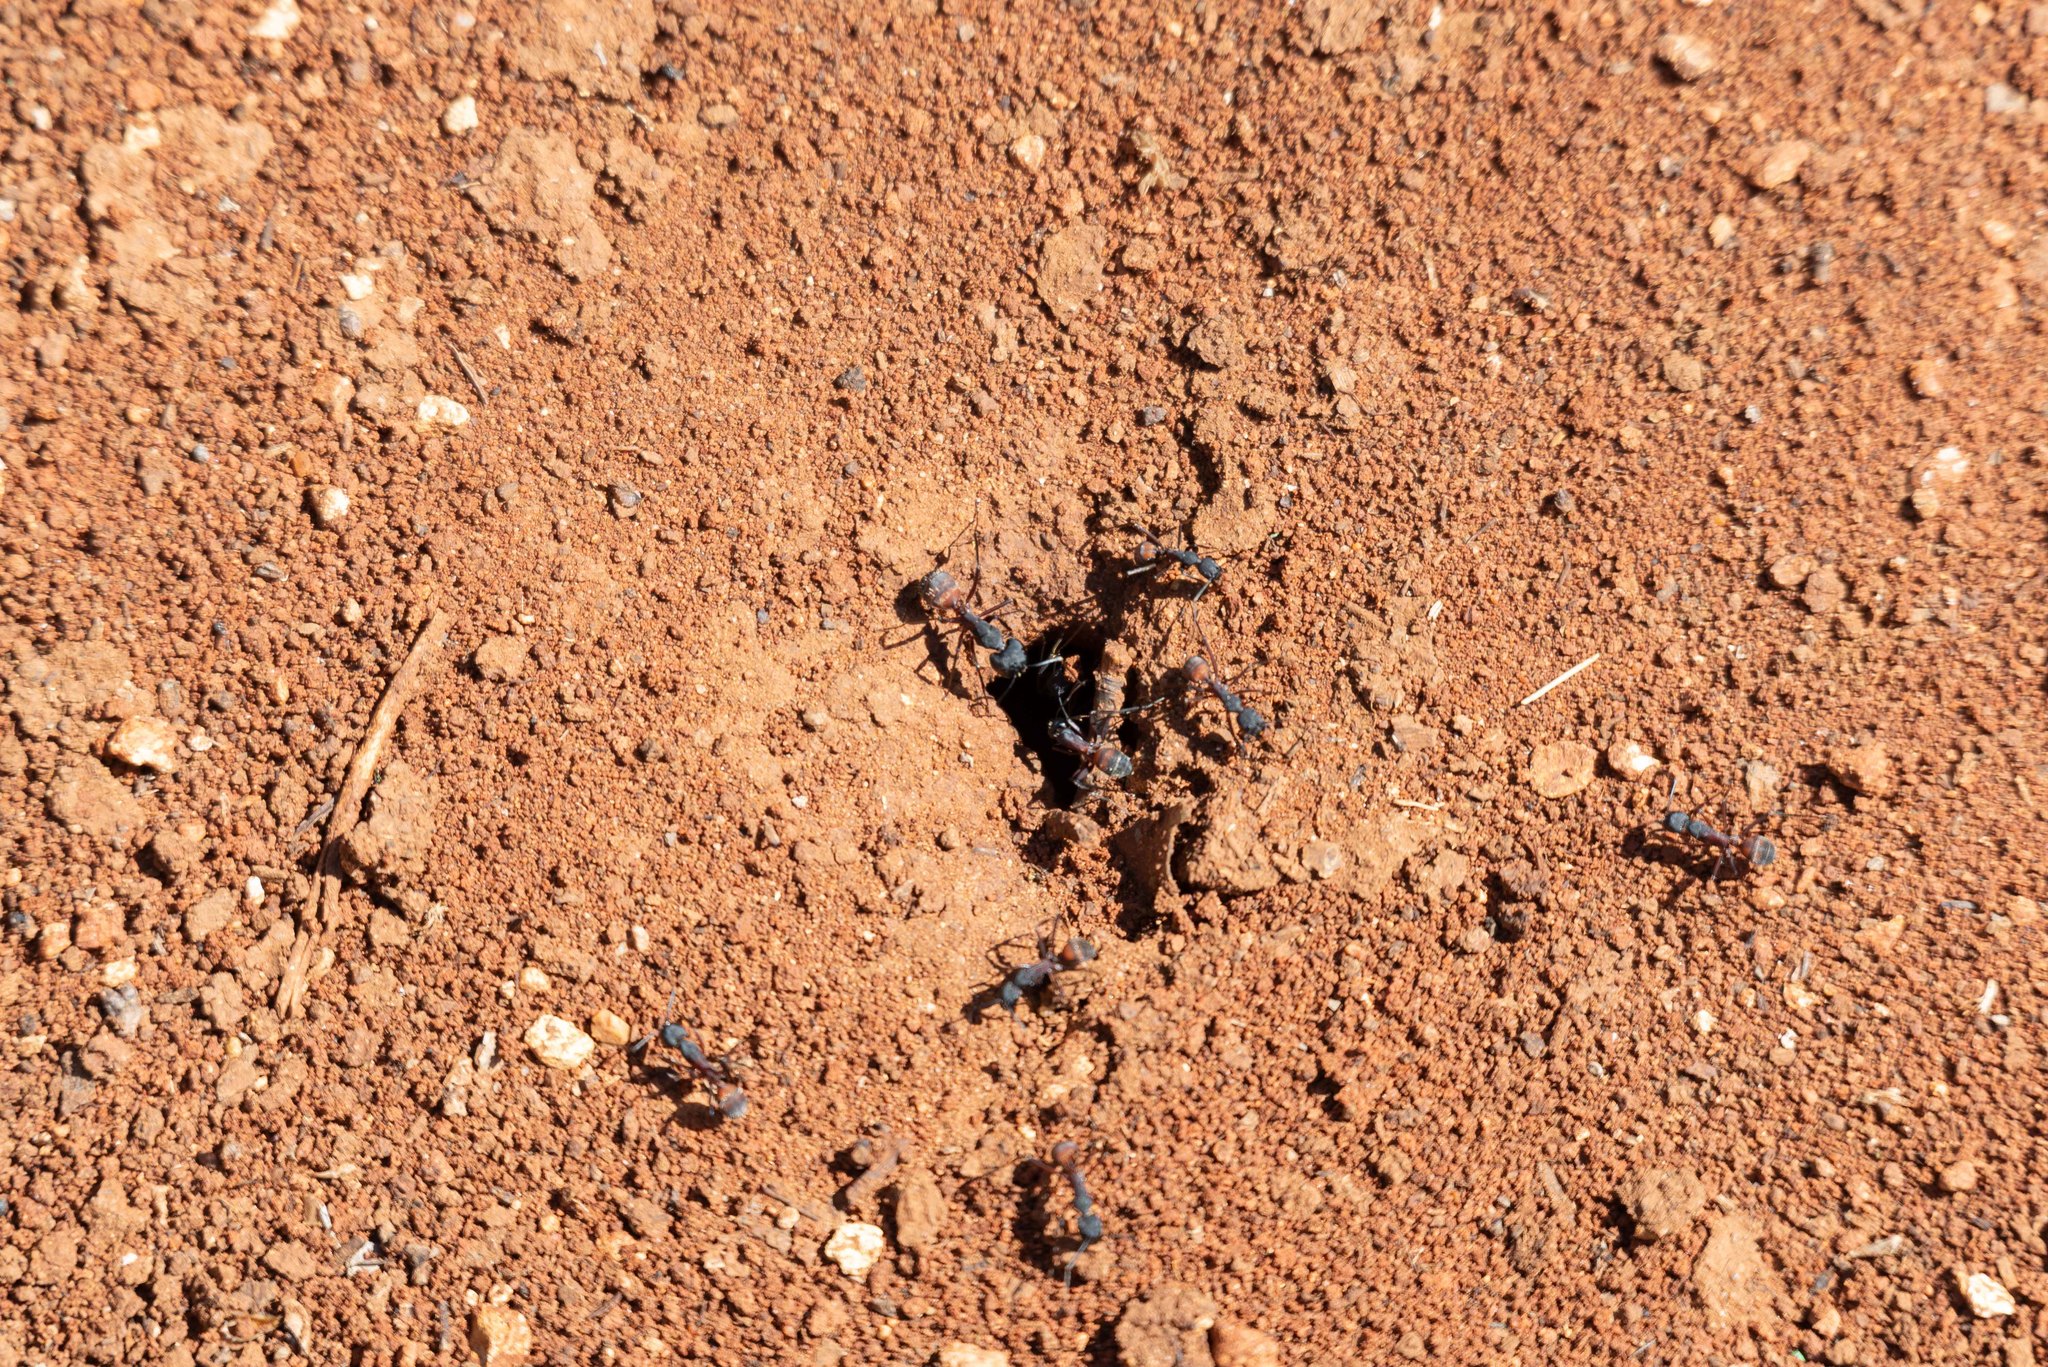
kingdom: Animalia
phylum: Arthropoda
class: Insecta
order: Hymenoptera
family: Formicidae
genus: Camponotus
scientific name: Camponotus cruentatus
